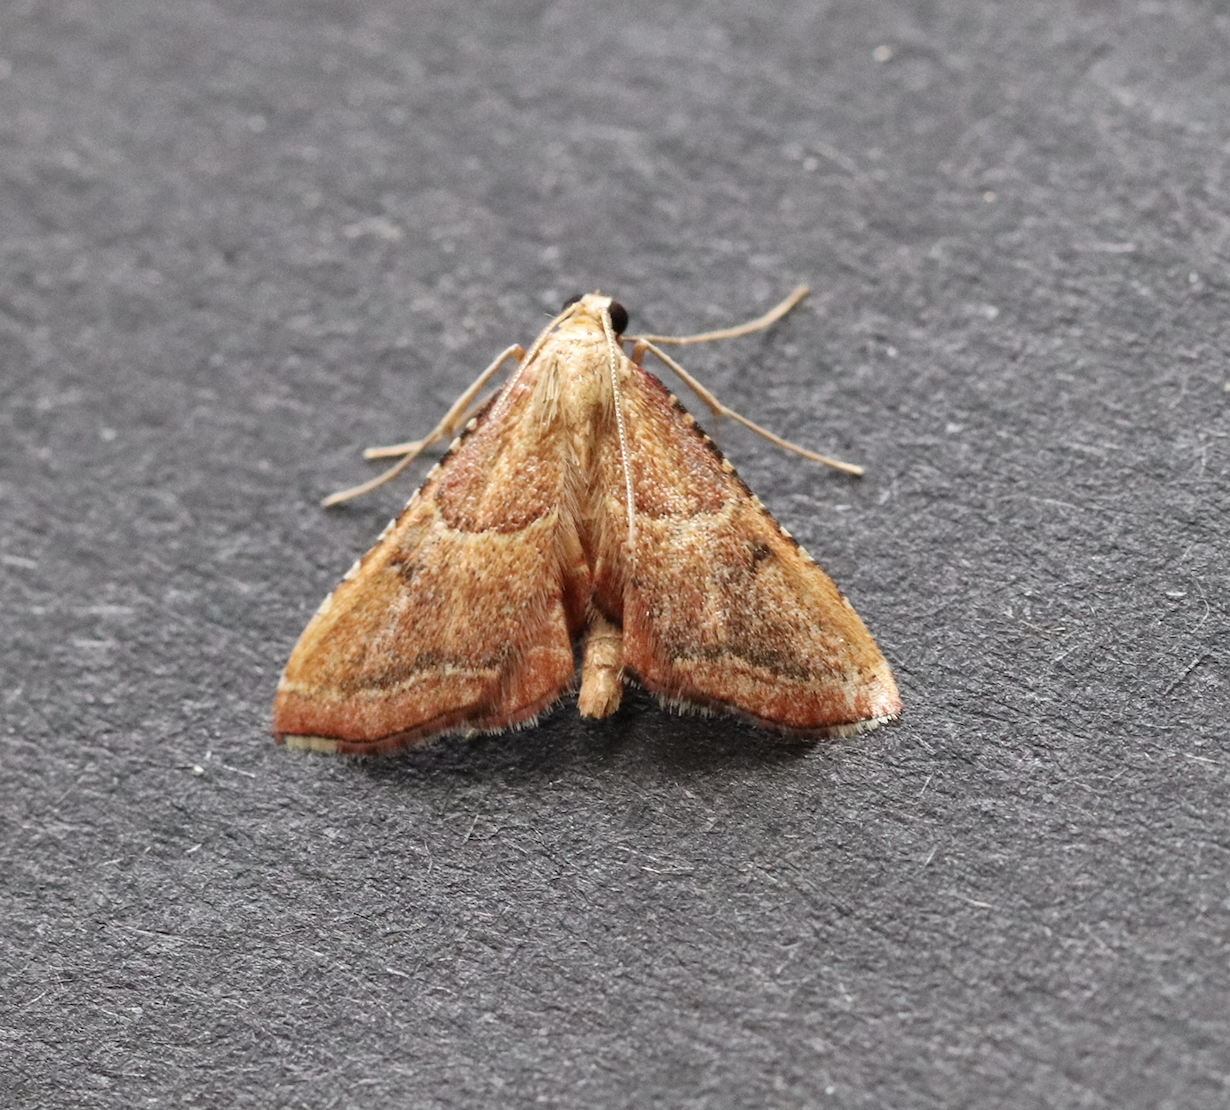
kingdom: Animalia
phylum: Arthropoda
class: Insecta
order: Lepidoptera
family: Pyralidae
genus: Endotricha
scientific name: Endotricha flammealis
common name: Rosy tabby
